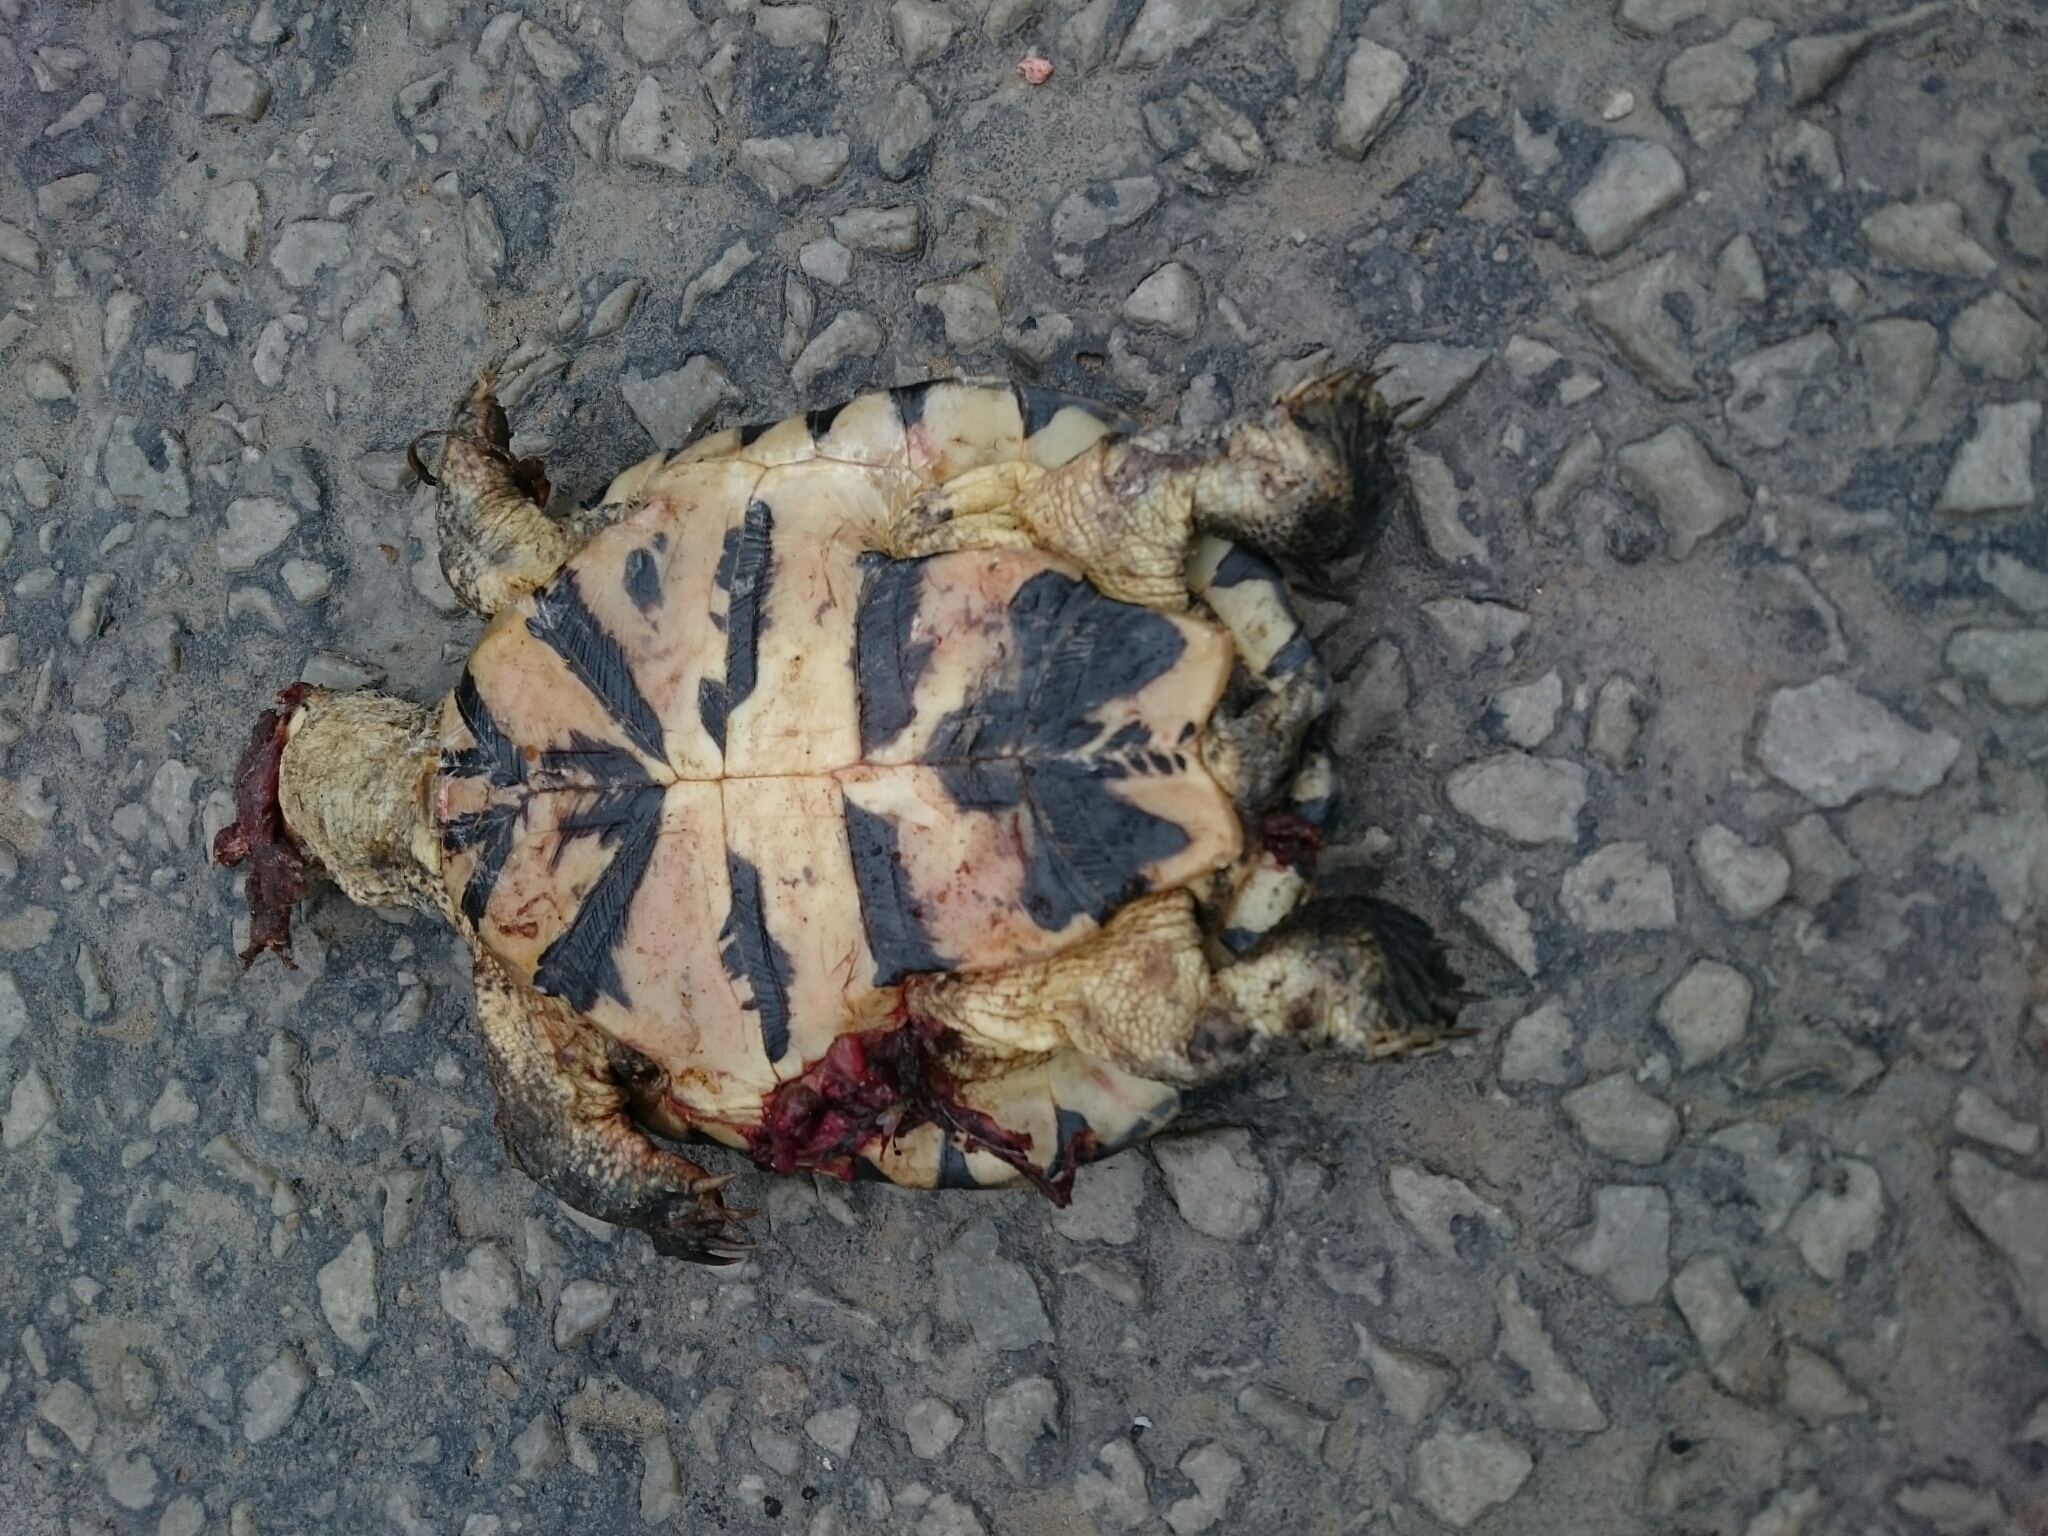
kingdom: Animalia
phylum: Chordata
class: Testudines
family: Pelomedusidae
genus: Pelomedusa
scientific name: Pelomedusa galeata
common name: South african helmeted terrapin
